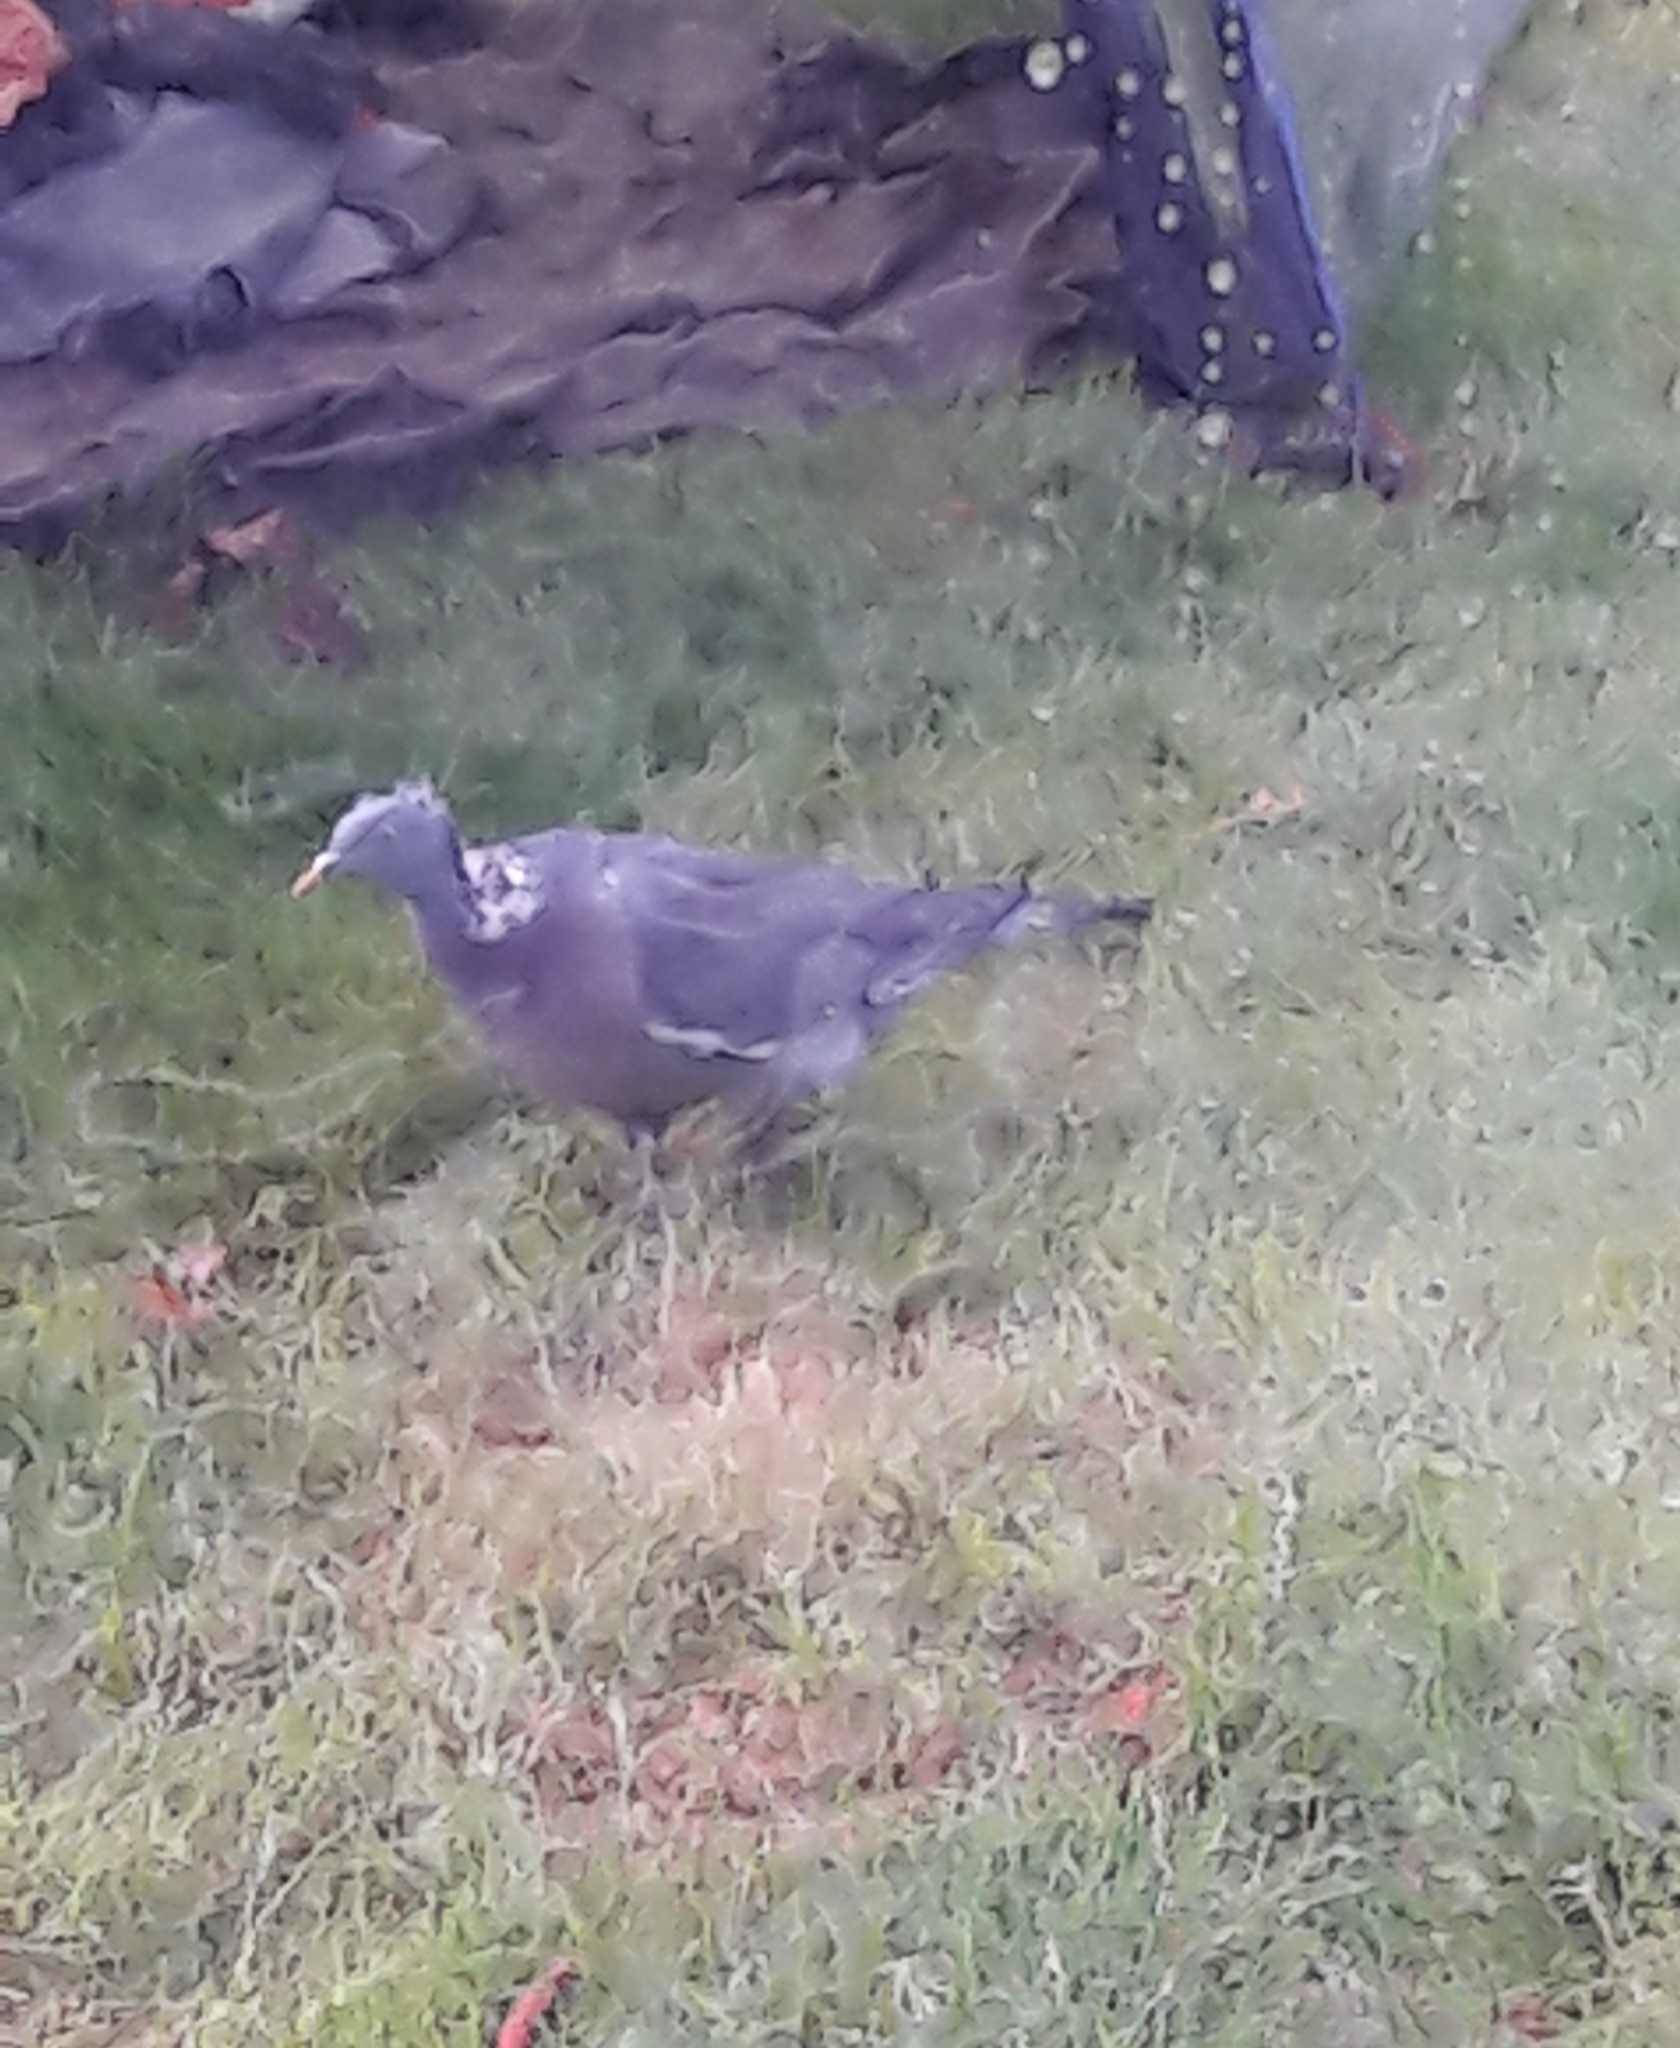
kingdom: Animalia
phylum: Chordata
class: Aves
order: Columbiformes
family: Columbidae
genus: Columba
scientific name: Columba palumbus
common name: Common wood pigeon
